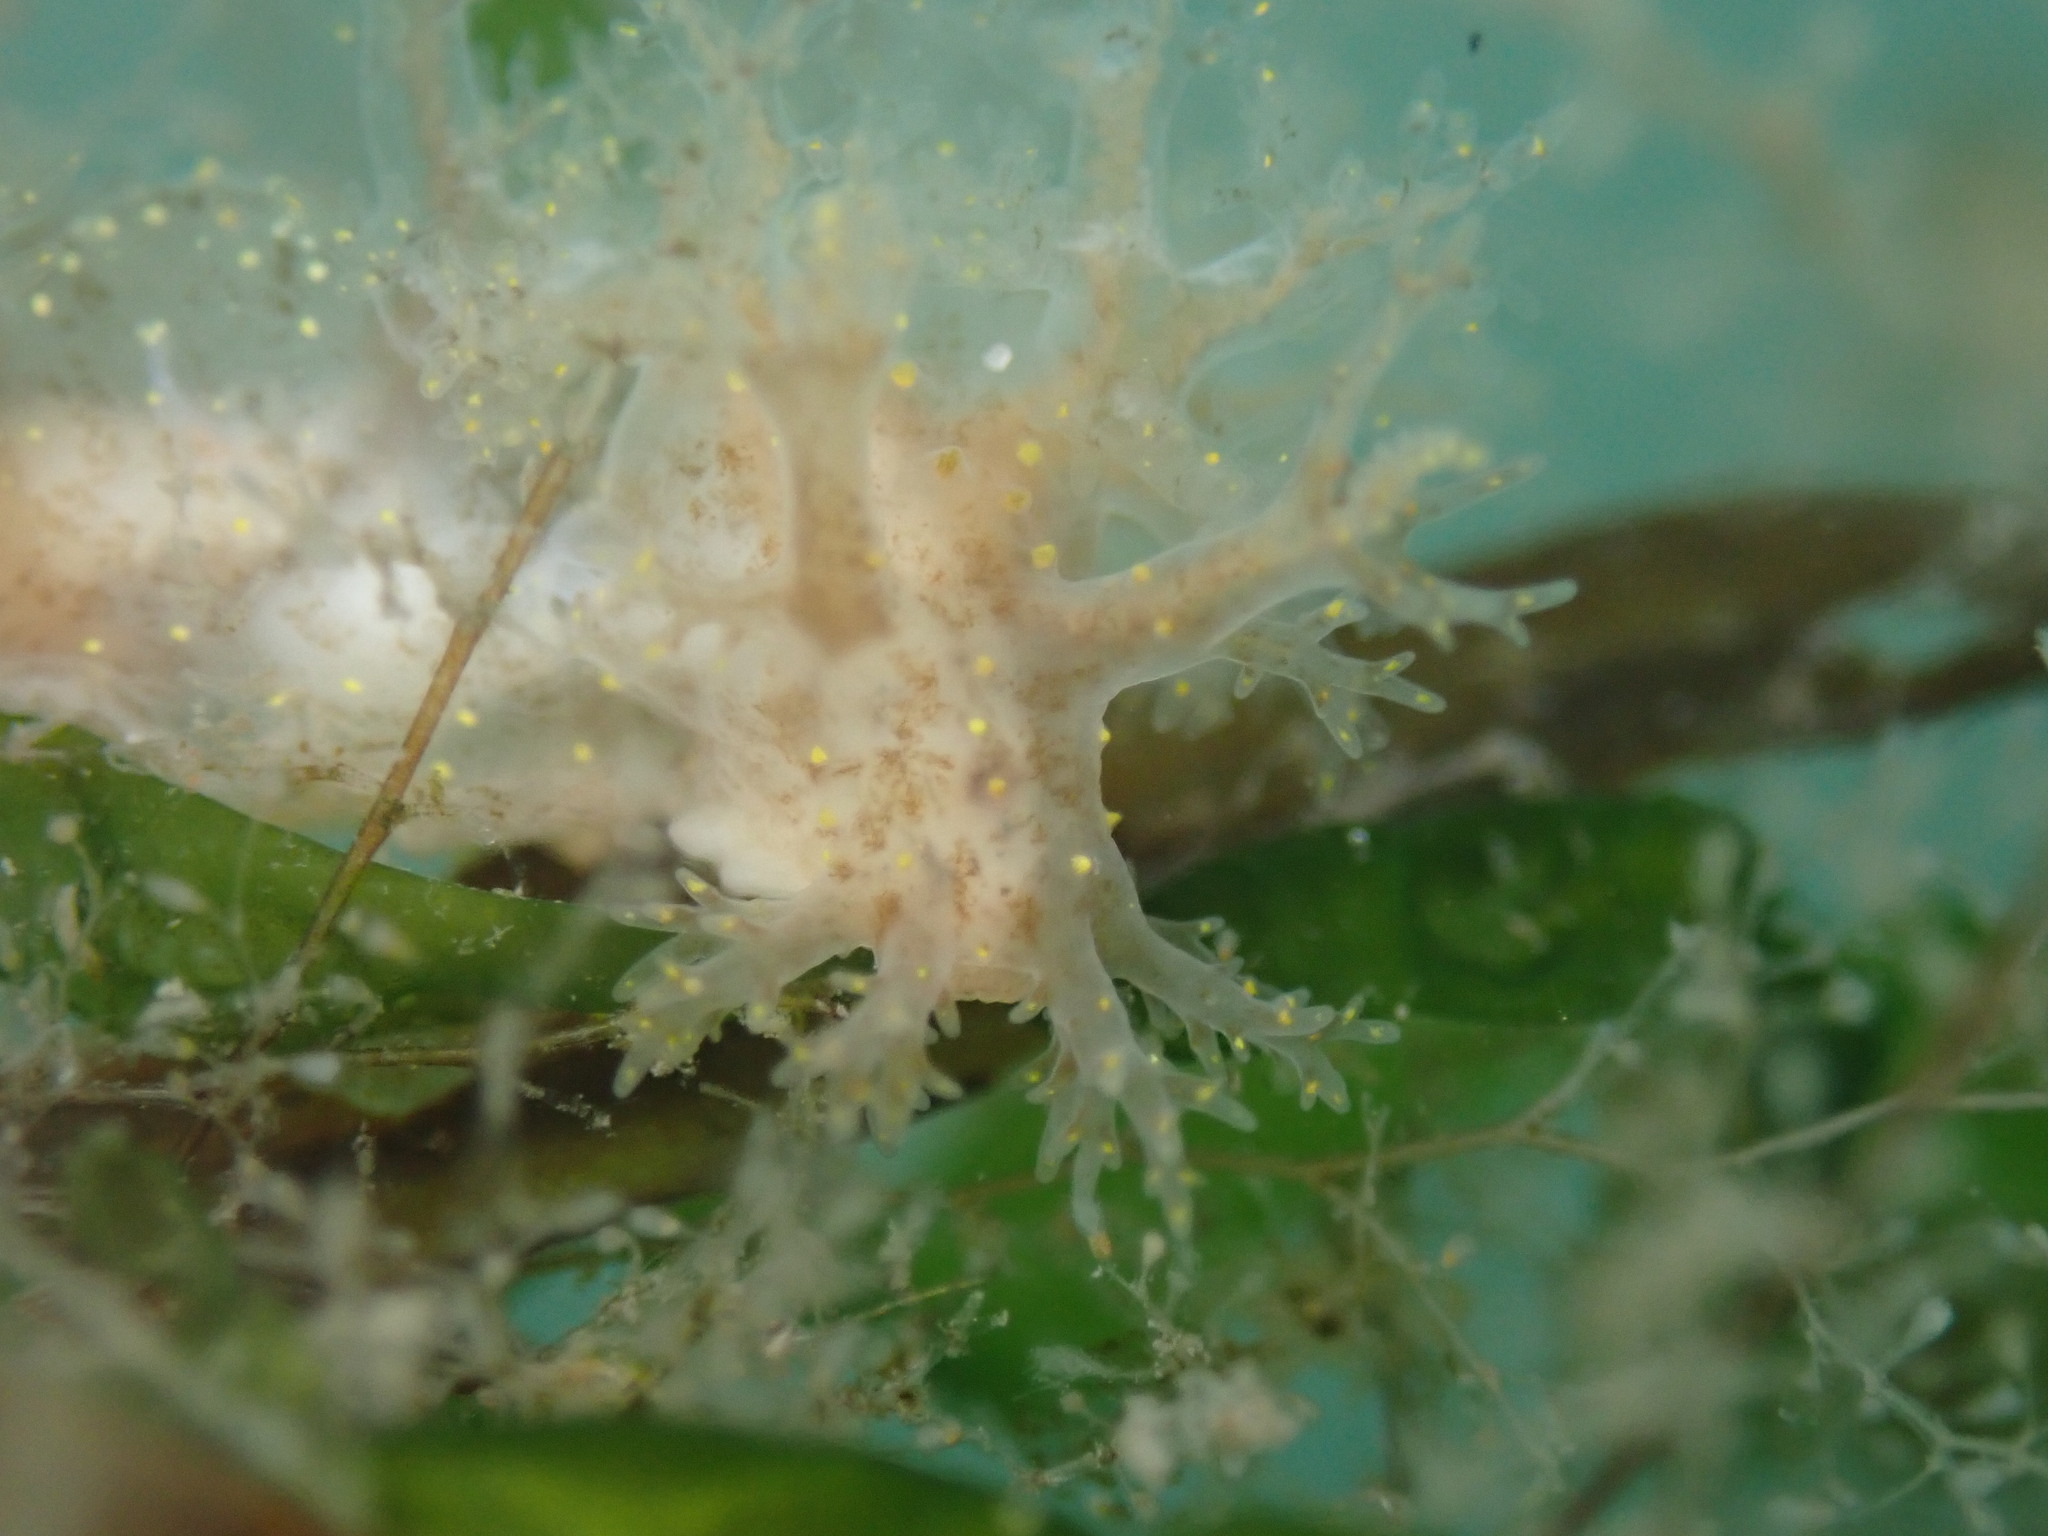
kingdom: Animalia
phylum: Mollusca
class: Gastropoda
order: Nudibranchia
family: Dendronotidae
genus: Dendronotus
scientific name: Dendronotus venustus
